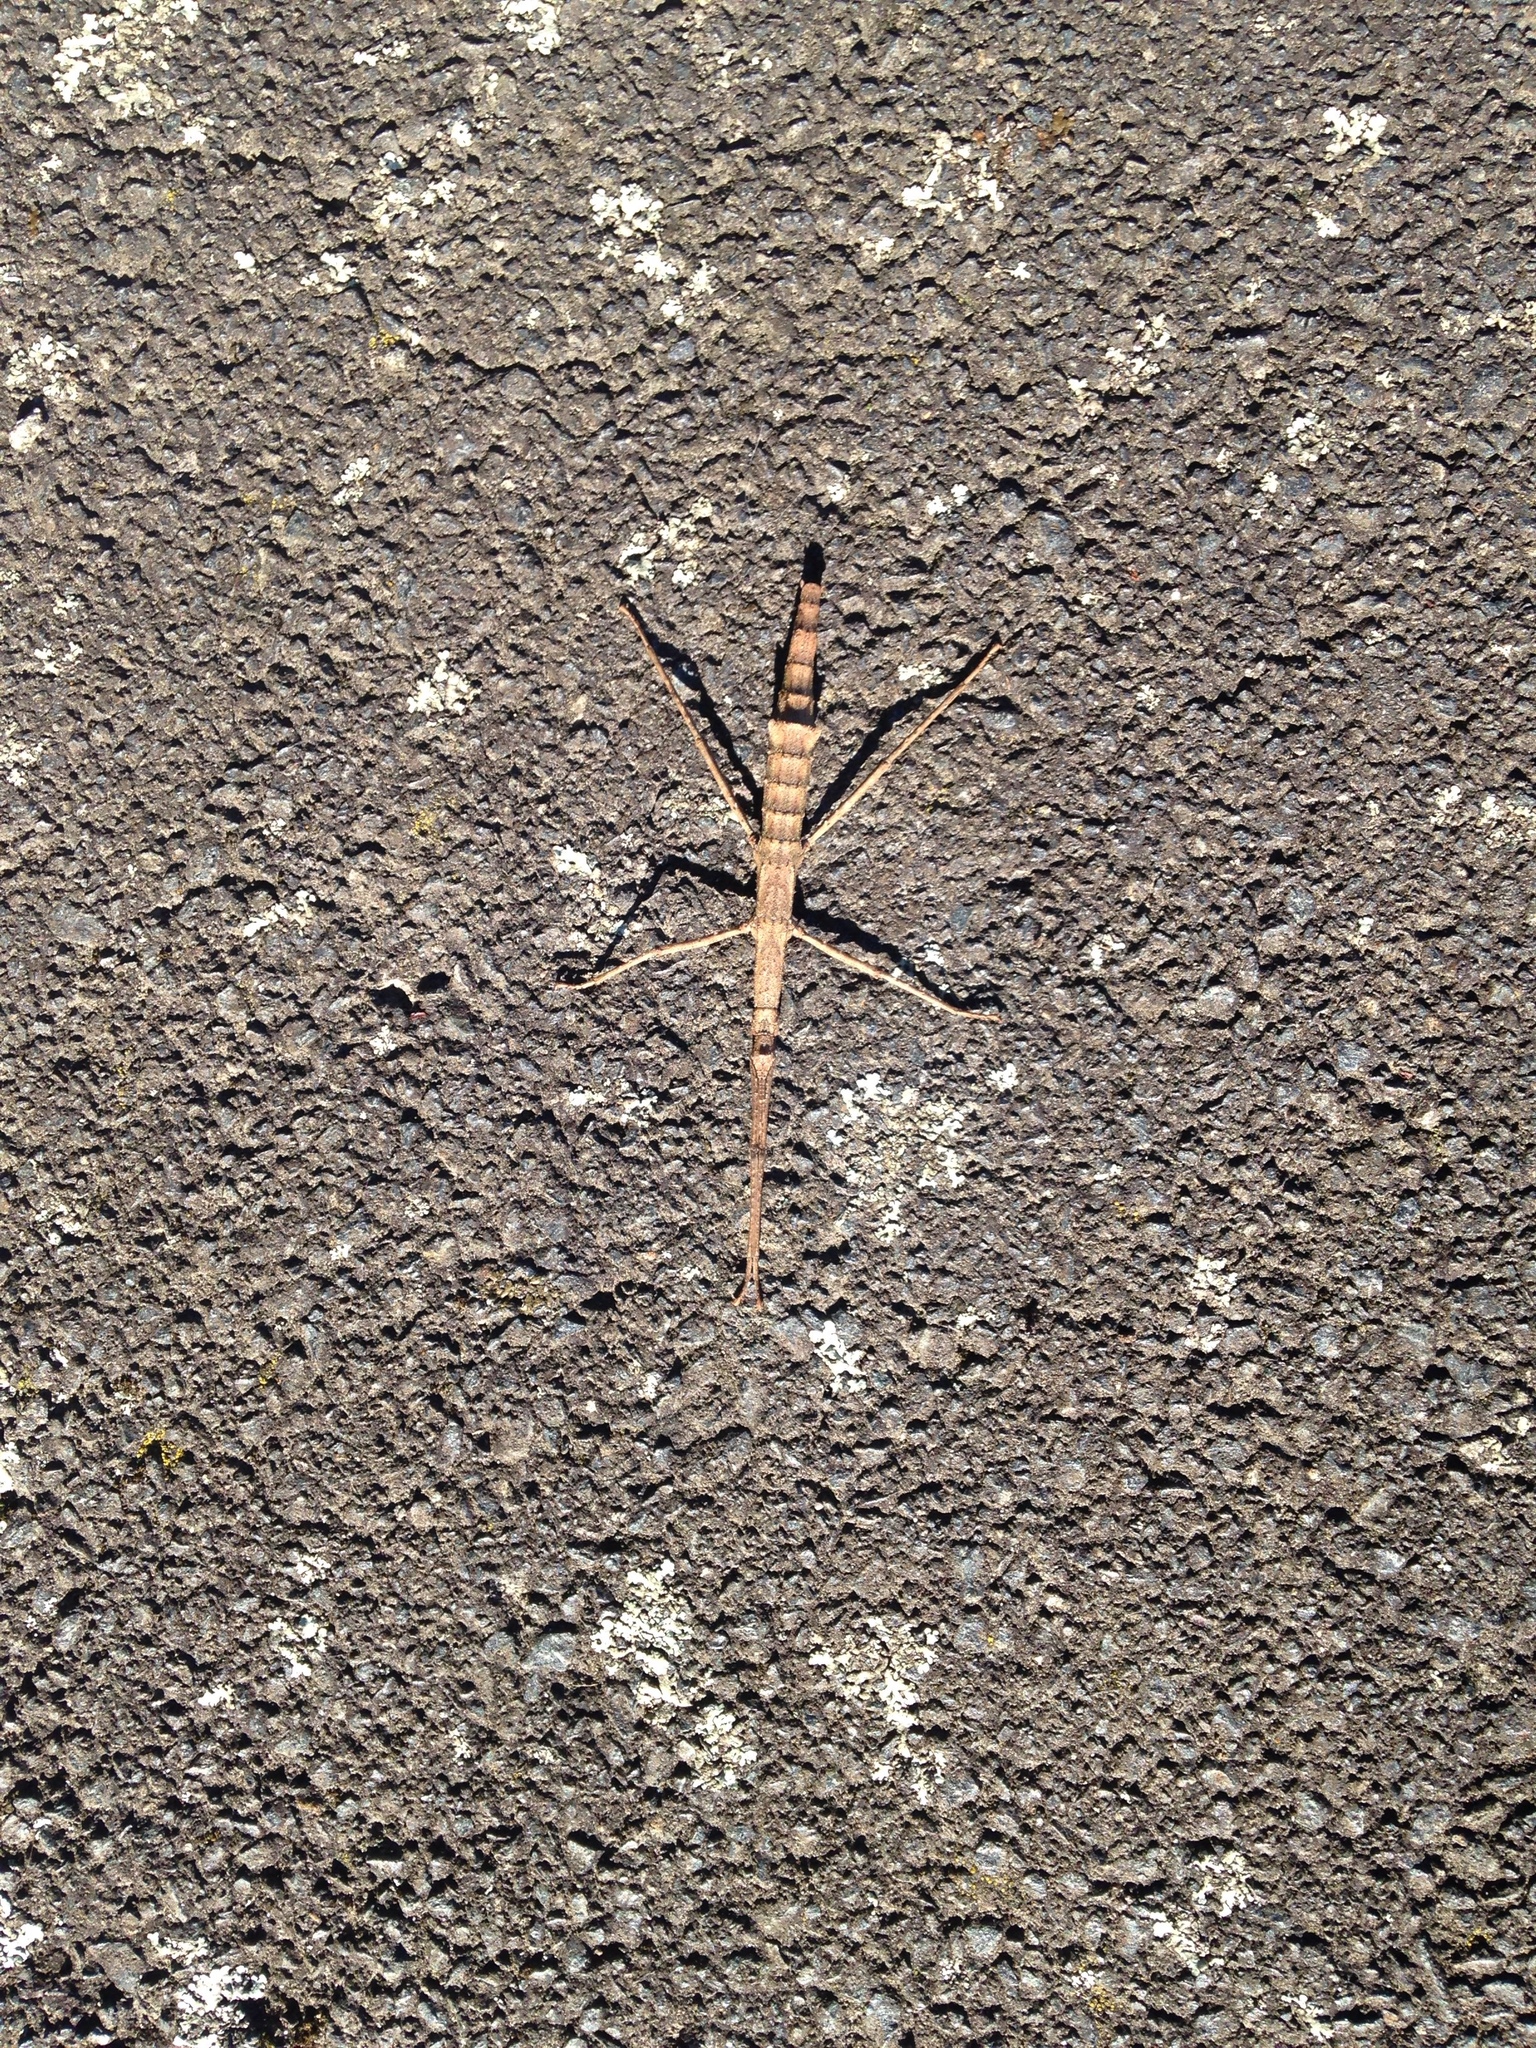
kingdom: Animalia
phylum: Arthropoda
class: Insecta
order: Phasmida
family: Phasmatidae
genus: Niveaphasma
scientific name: Niveaphasma annulatum
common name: Hutton's stick insect
